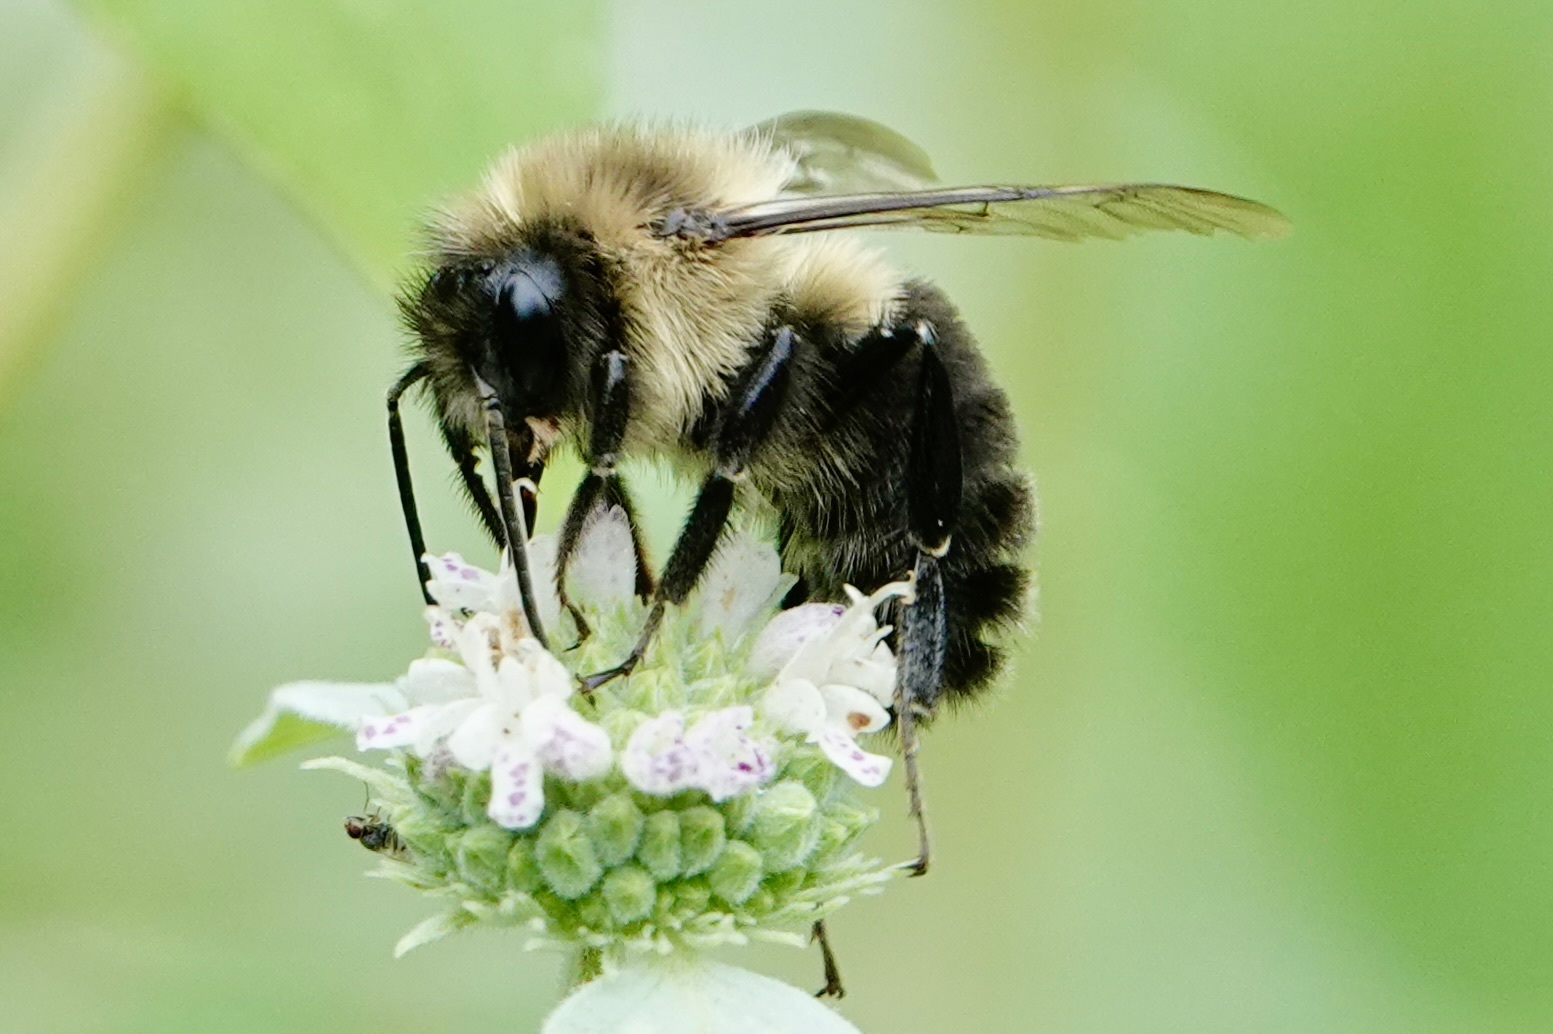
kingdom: Animalia
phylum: Arthropoda
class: Insecta
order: Hymenoptera
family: Apidae
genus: Bombus
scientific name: Bombus impatiens
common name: Common eastern bumble bee
